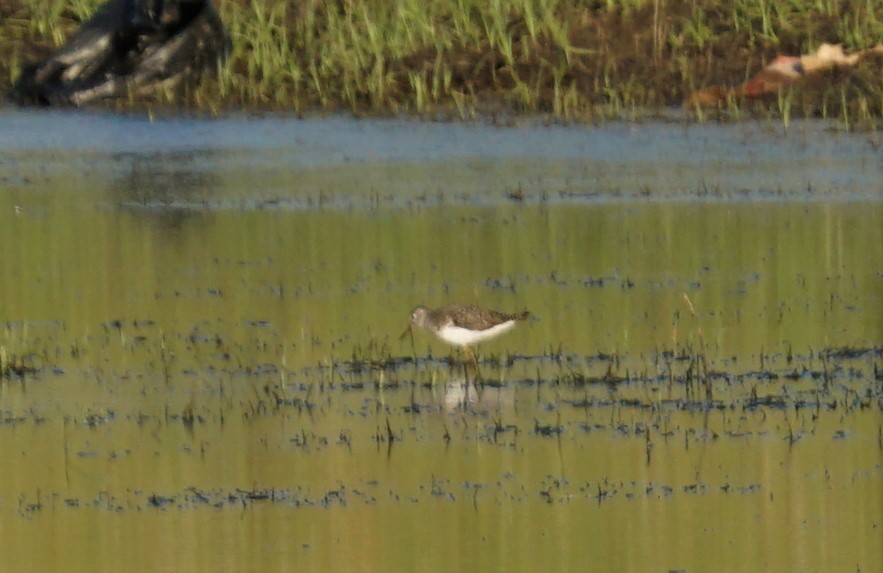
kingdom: Animalia
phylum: Chordata
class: Aves
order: Charadriiformes
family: Scolopacidae
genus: Tringa
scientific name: Tringa solitaria
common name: Solitary sandpiper
